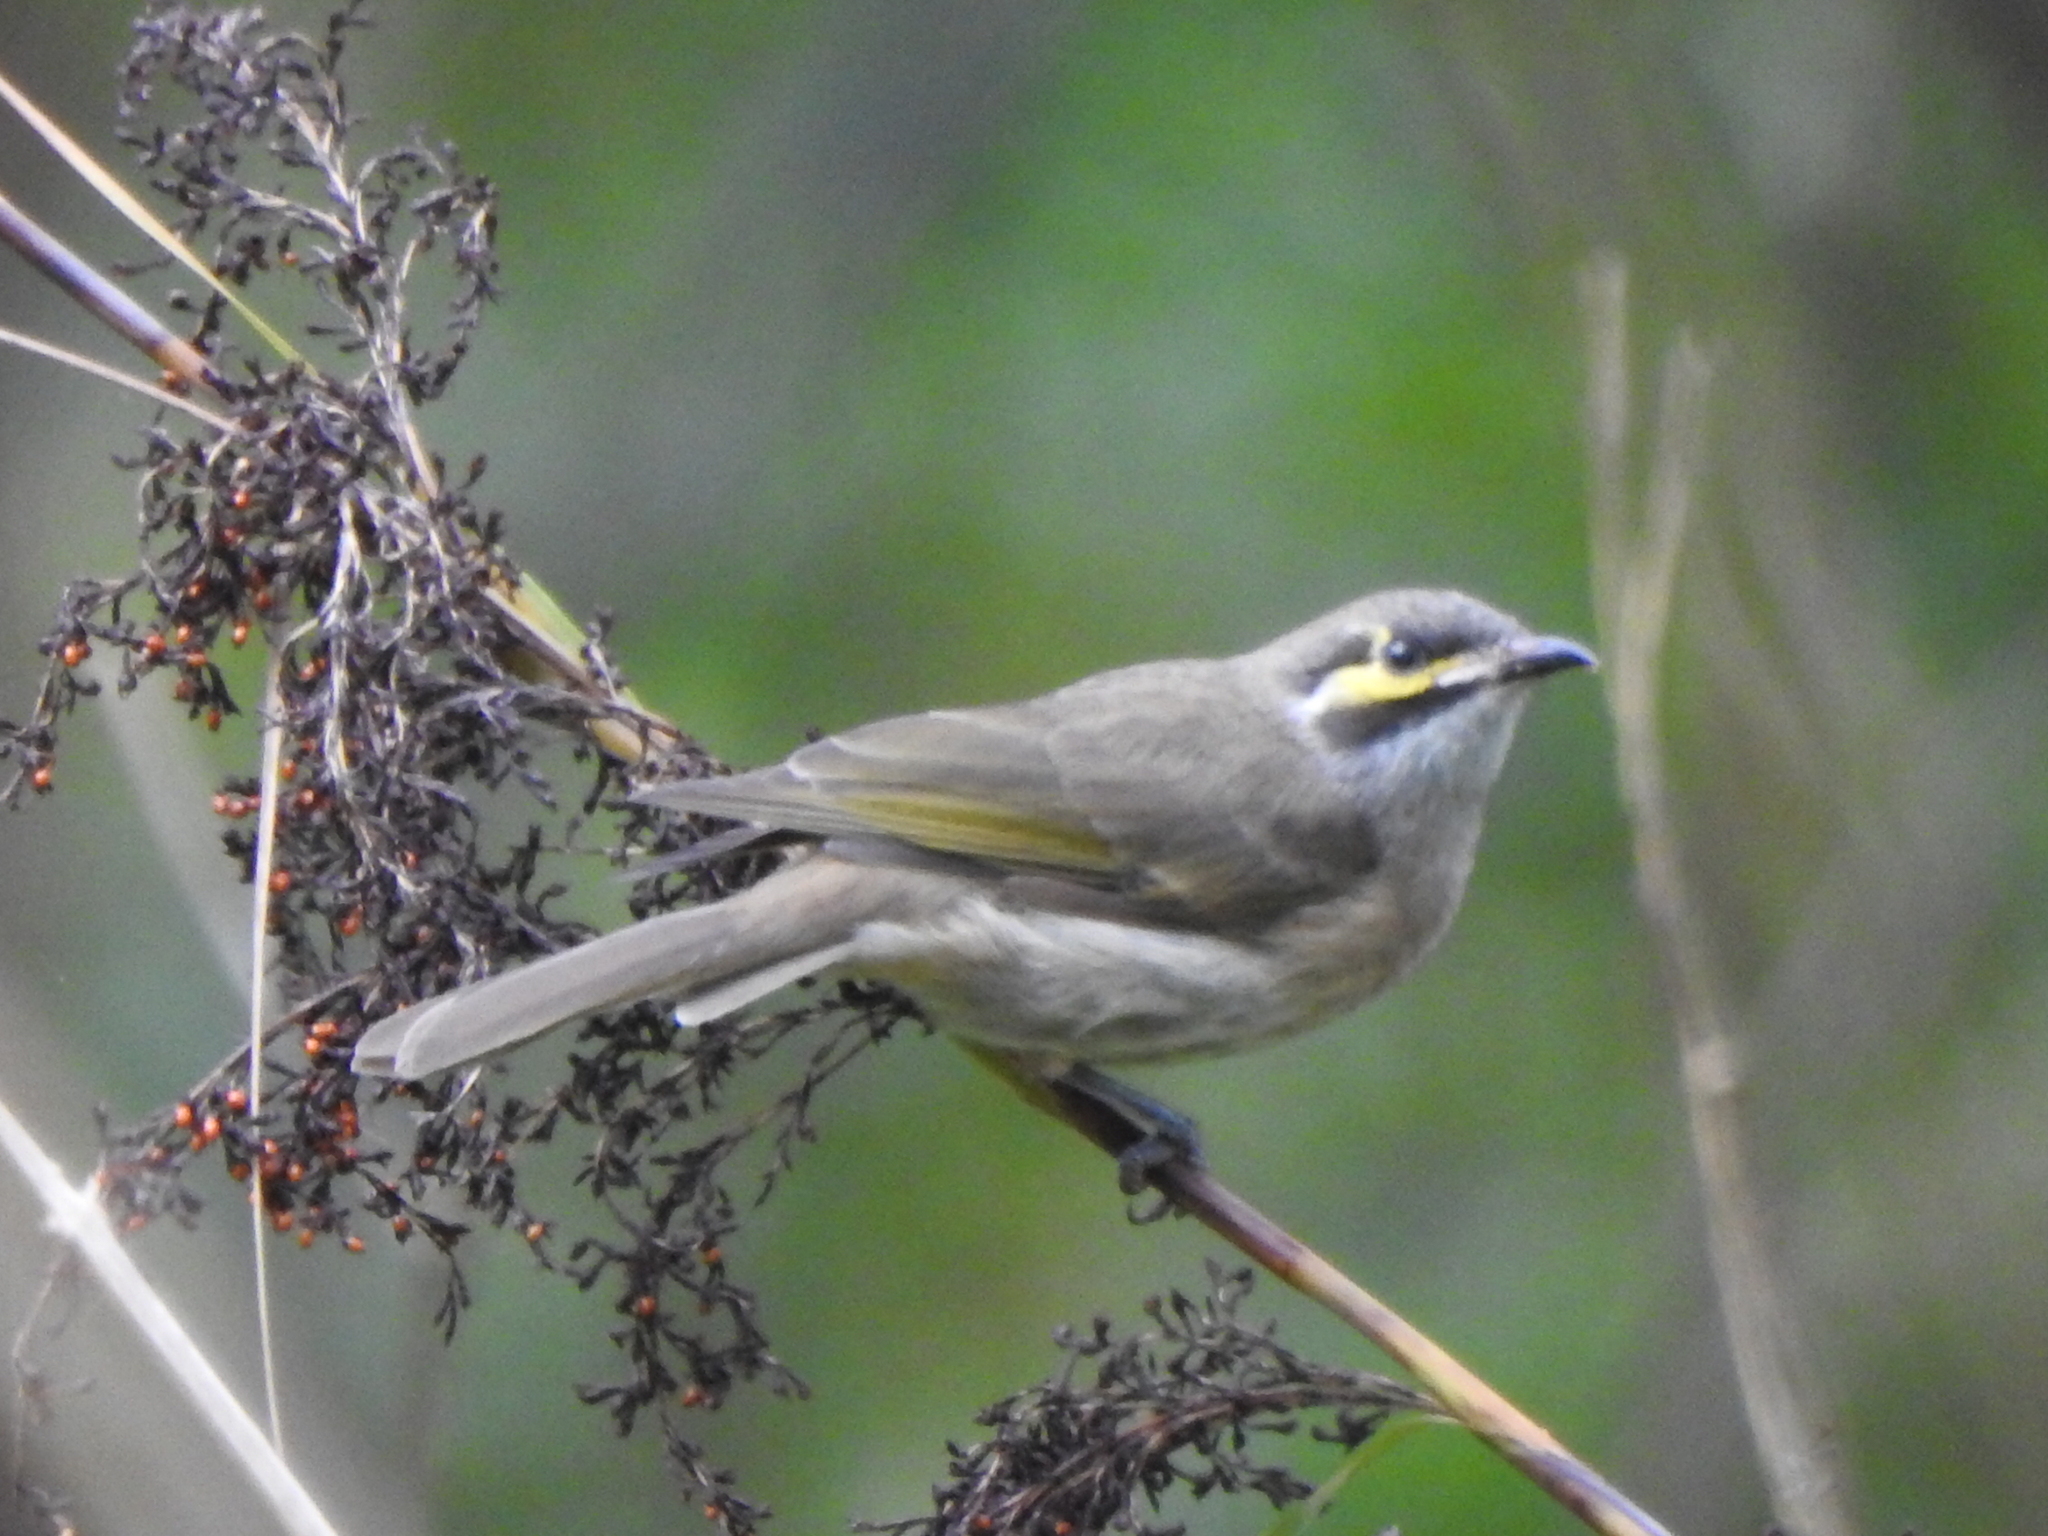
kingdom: Animalia
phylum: Chordata
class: Aves
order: Passeriformes
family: Meliphagidae
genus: Caligavis
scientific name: Caligavis chrysops
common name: Yellow-faced honeyeater
